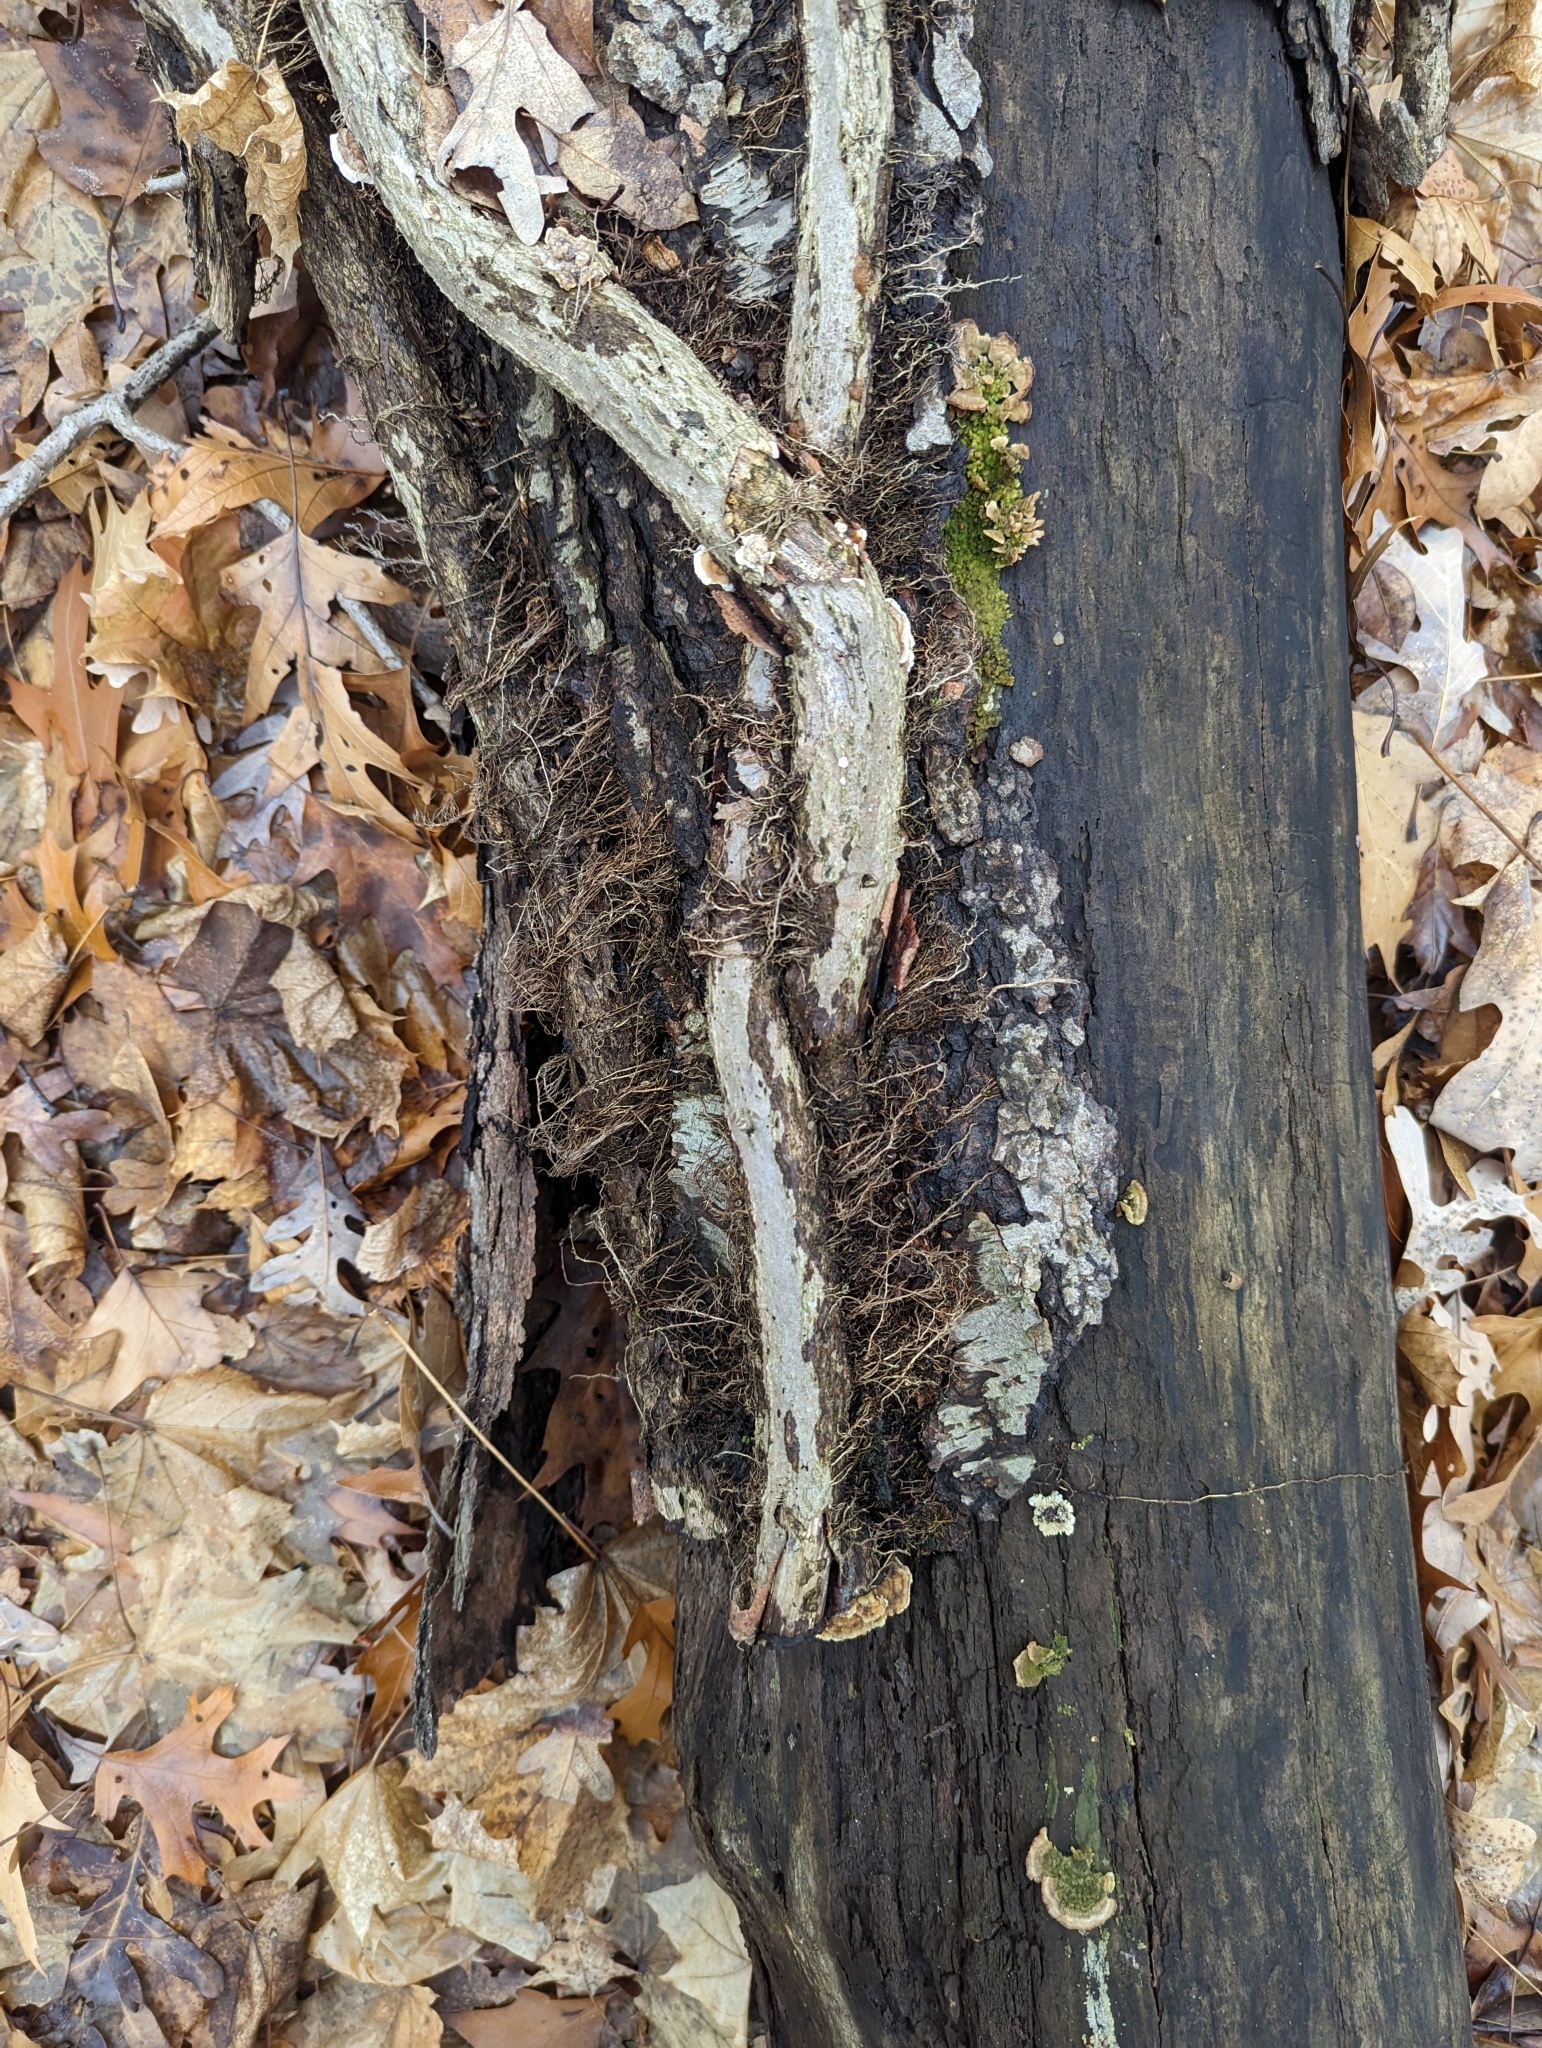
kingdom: Plantae
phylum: Tracheophyta
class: Magnoliopsida
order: Sapindales
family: Anacardiaceae
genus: Toxicodendron
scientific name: Toxicodendron radicans
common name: Poison ivy
